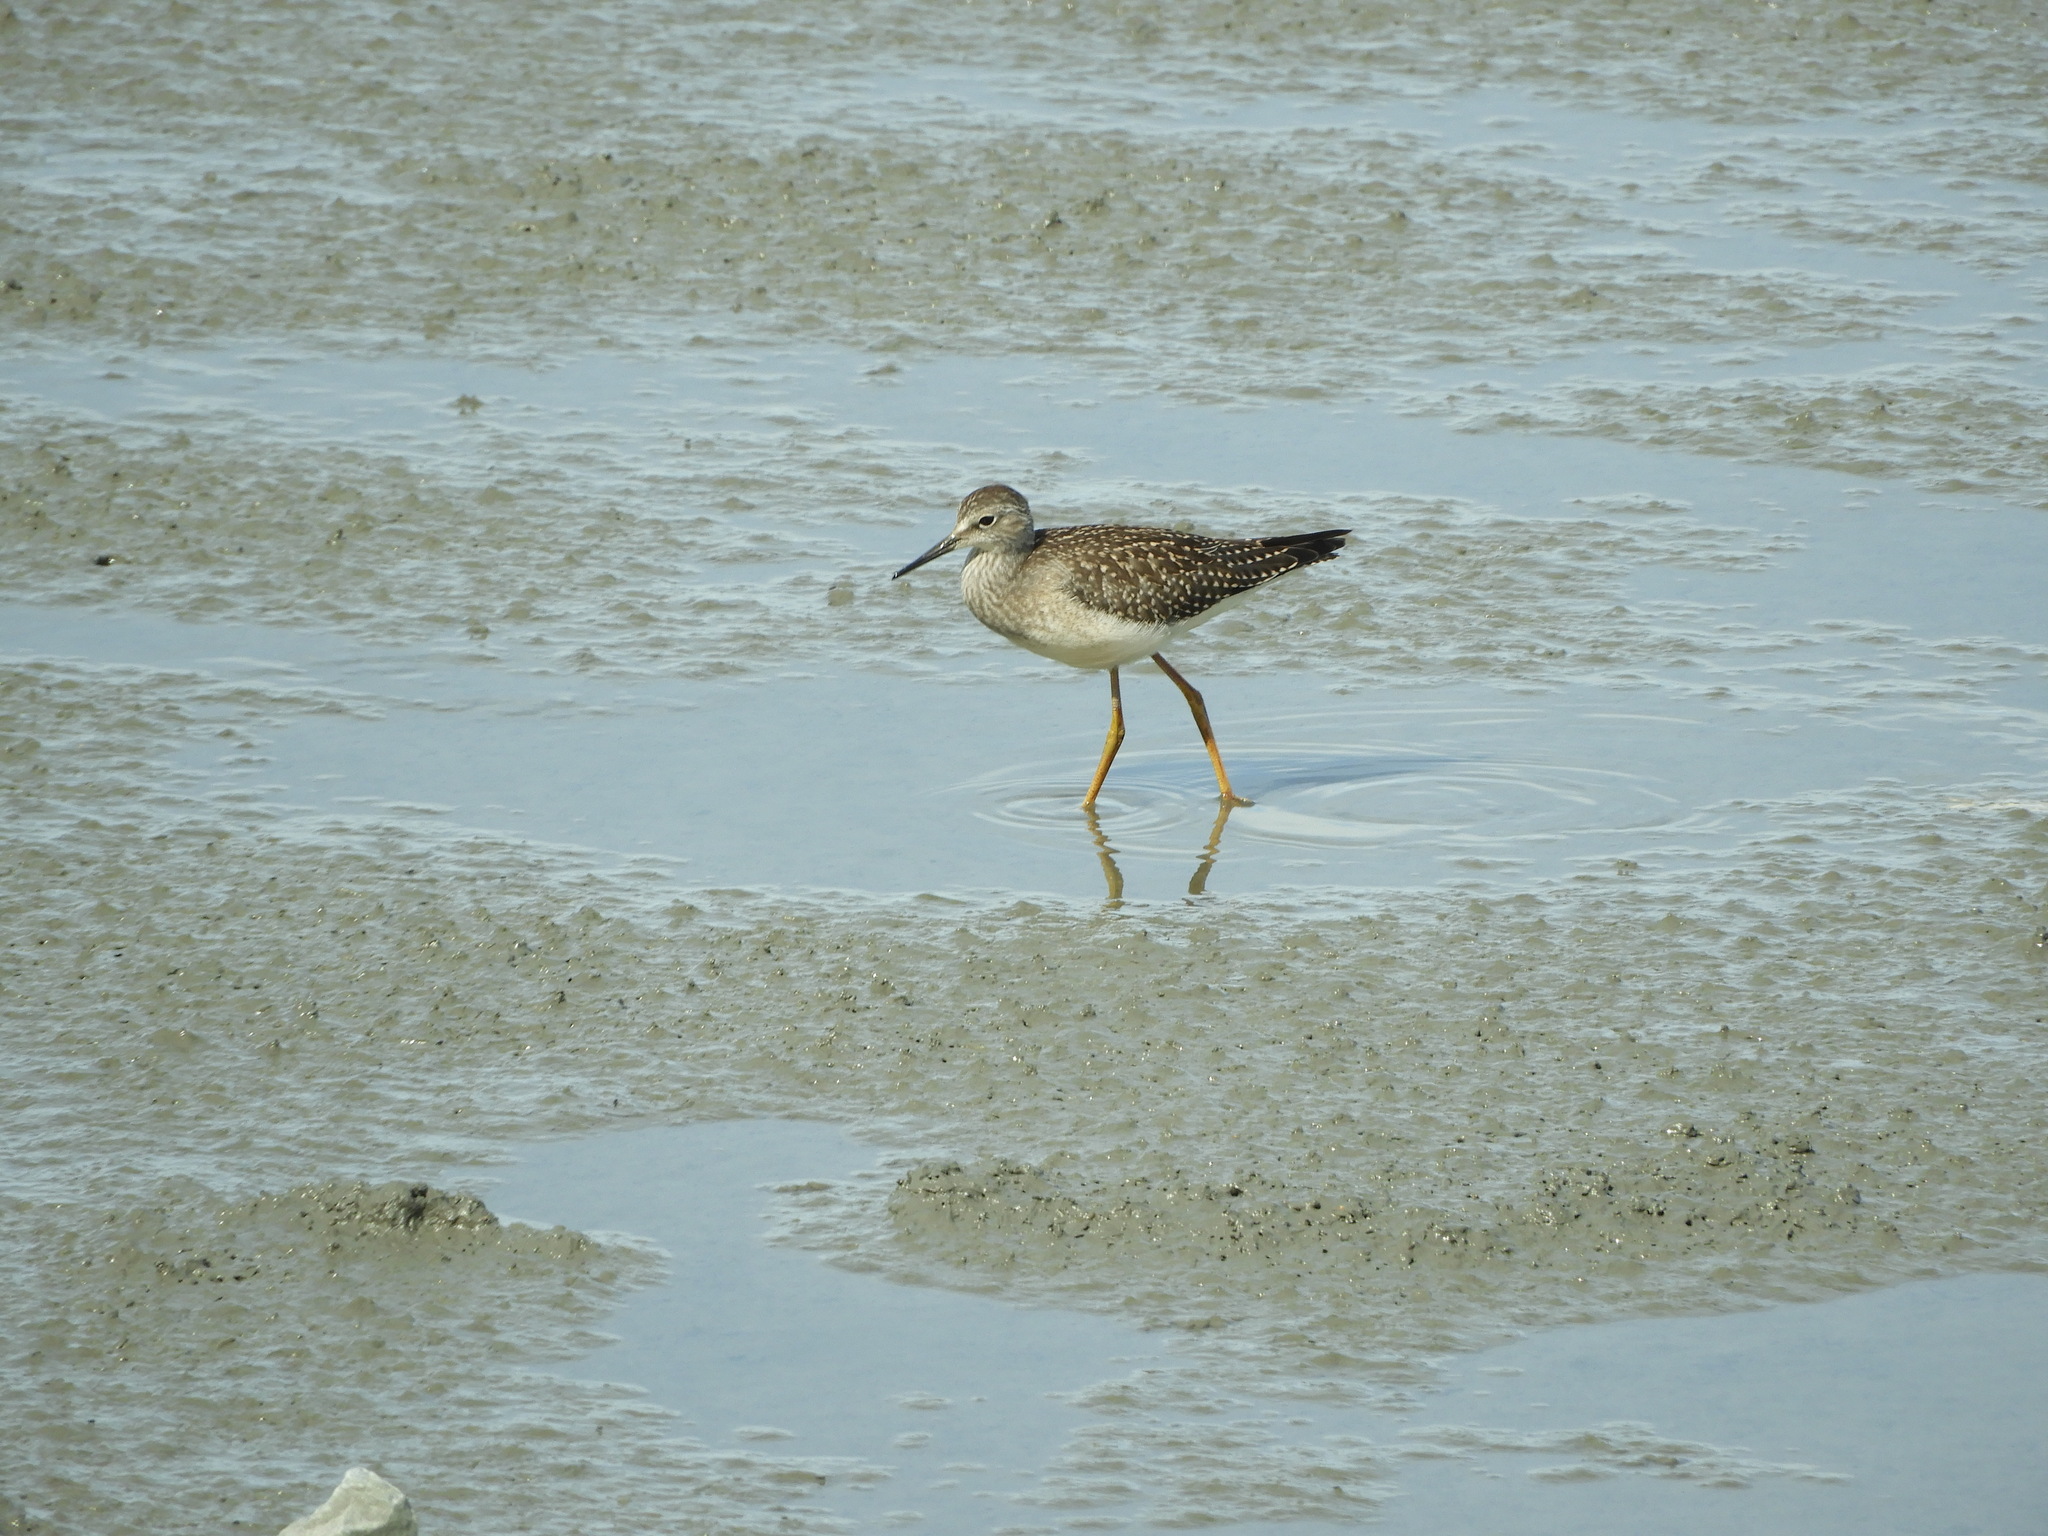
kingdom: Animalia
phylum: Chordata
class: Aves
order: Charadriiformes
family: Scolopacidae
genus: Tringa
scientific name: Tringa flavipes
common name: Lesser yellowlegs
